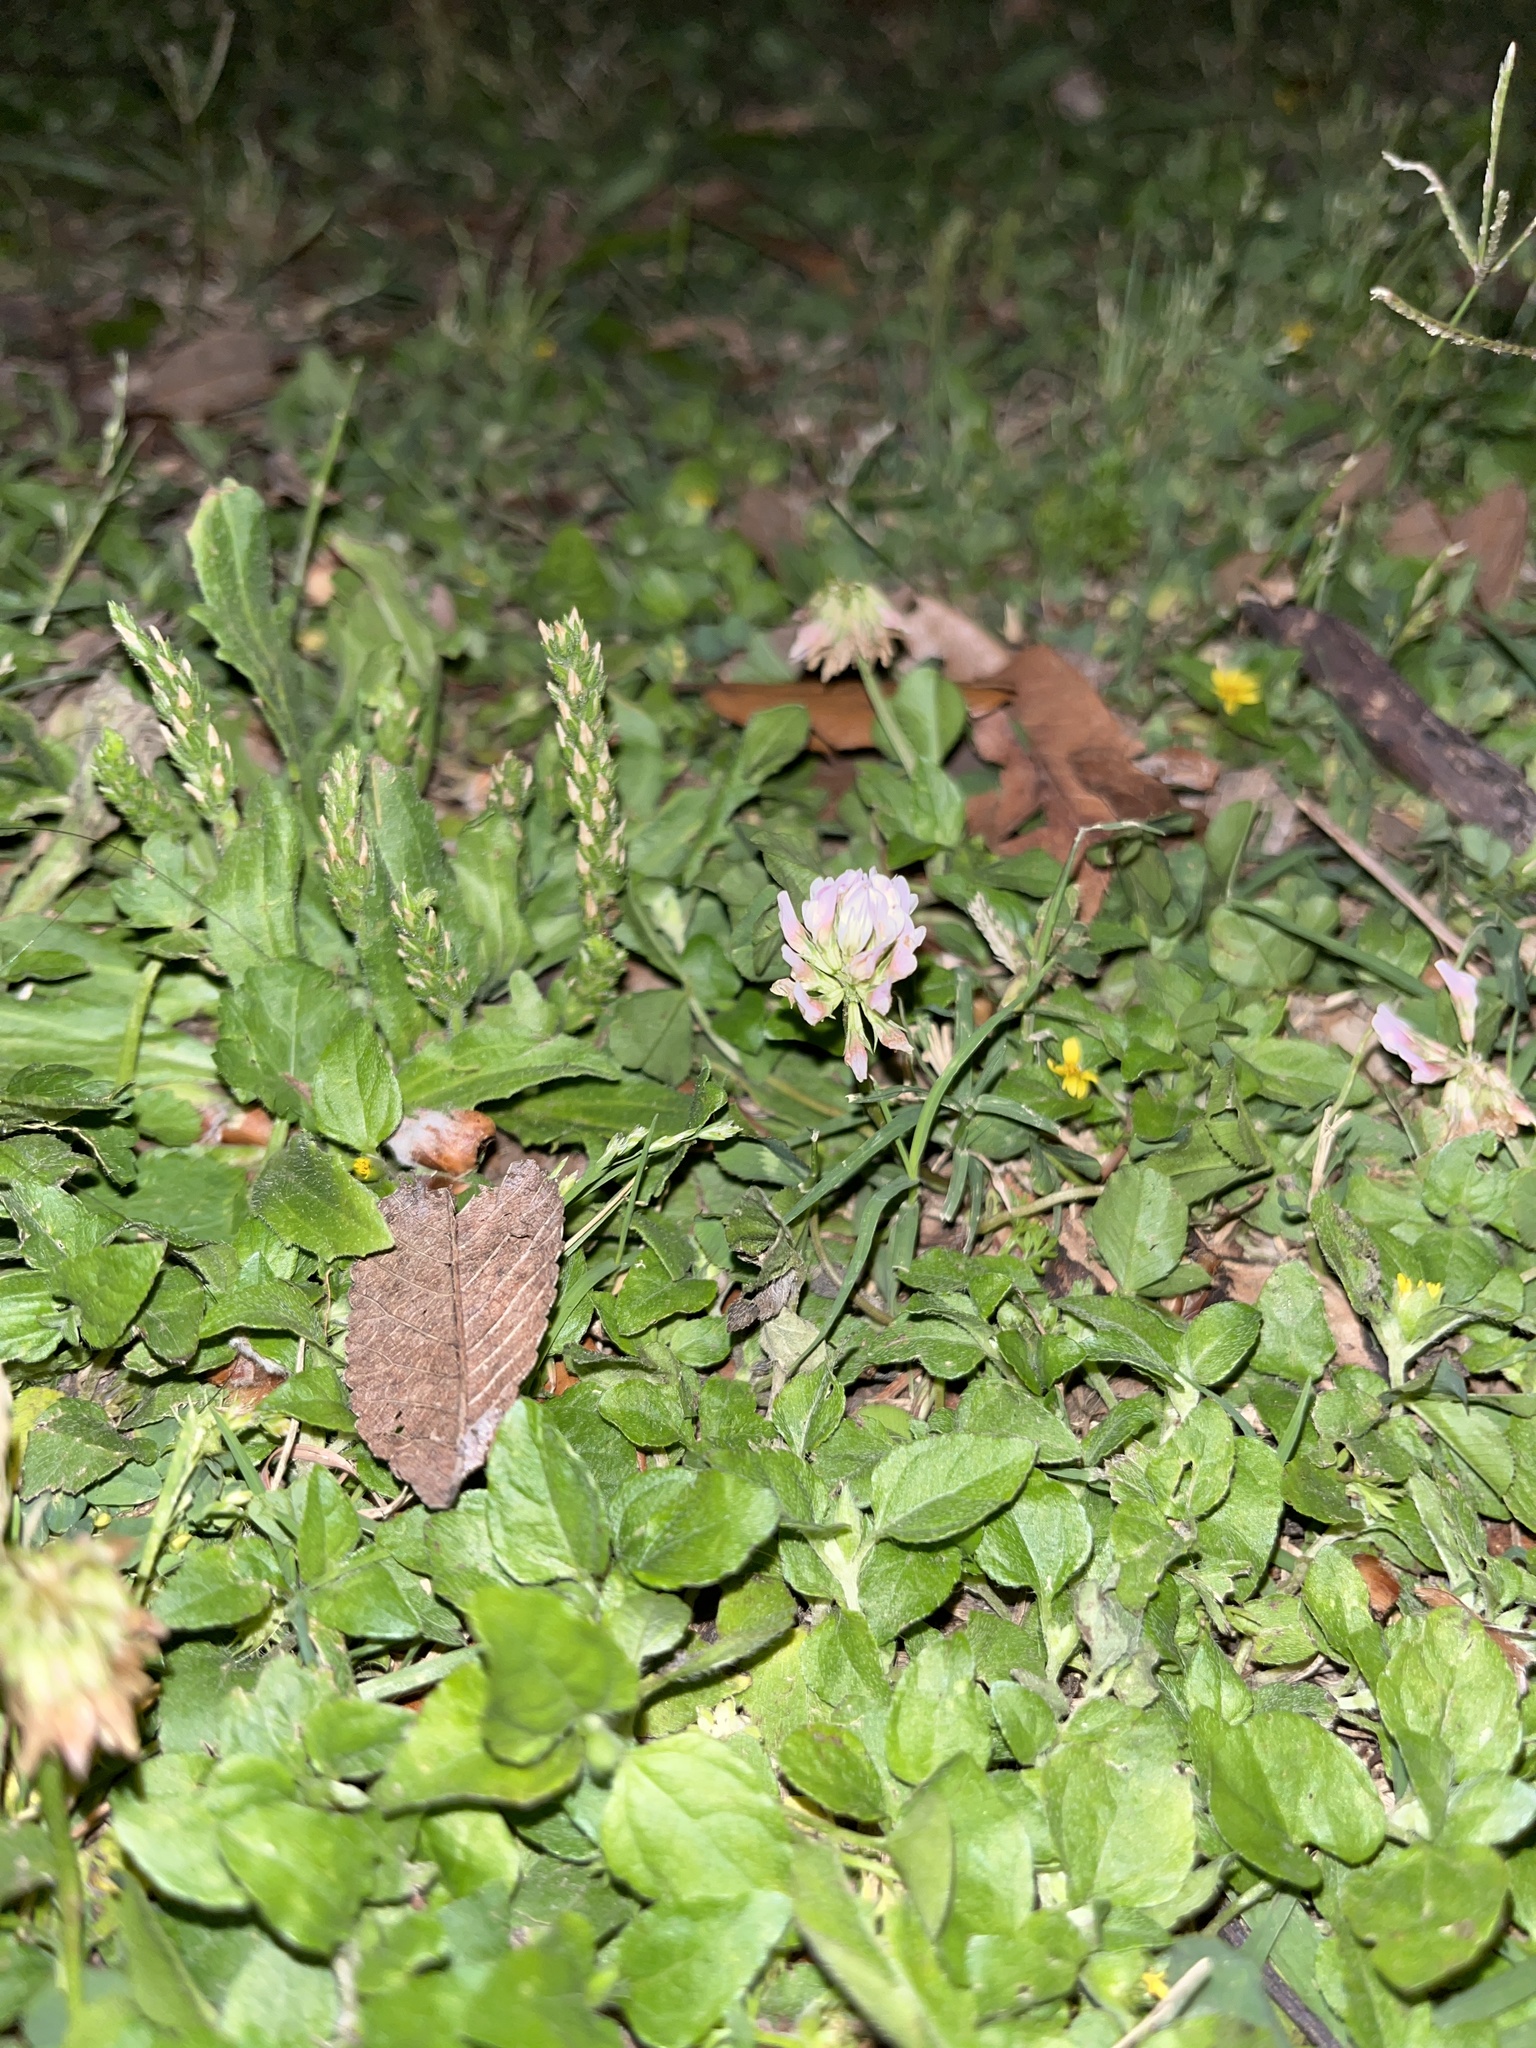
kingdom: Plantae
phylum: Tracheophyta
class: Magnoliopsida
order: Fabales
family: Fabaceae
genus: Trifolium
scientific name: Trifolium repens
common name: White clover
